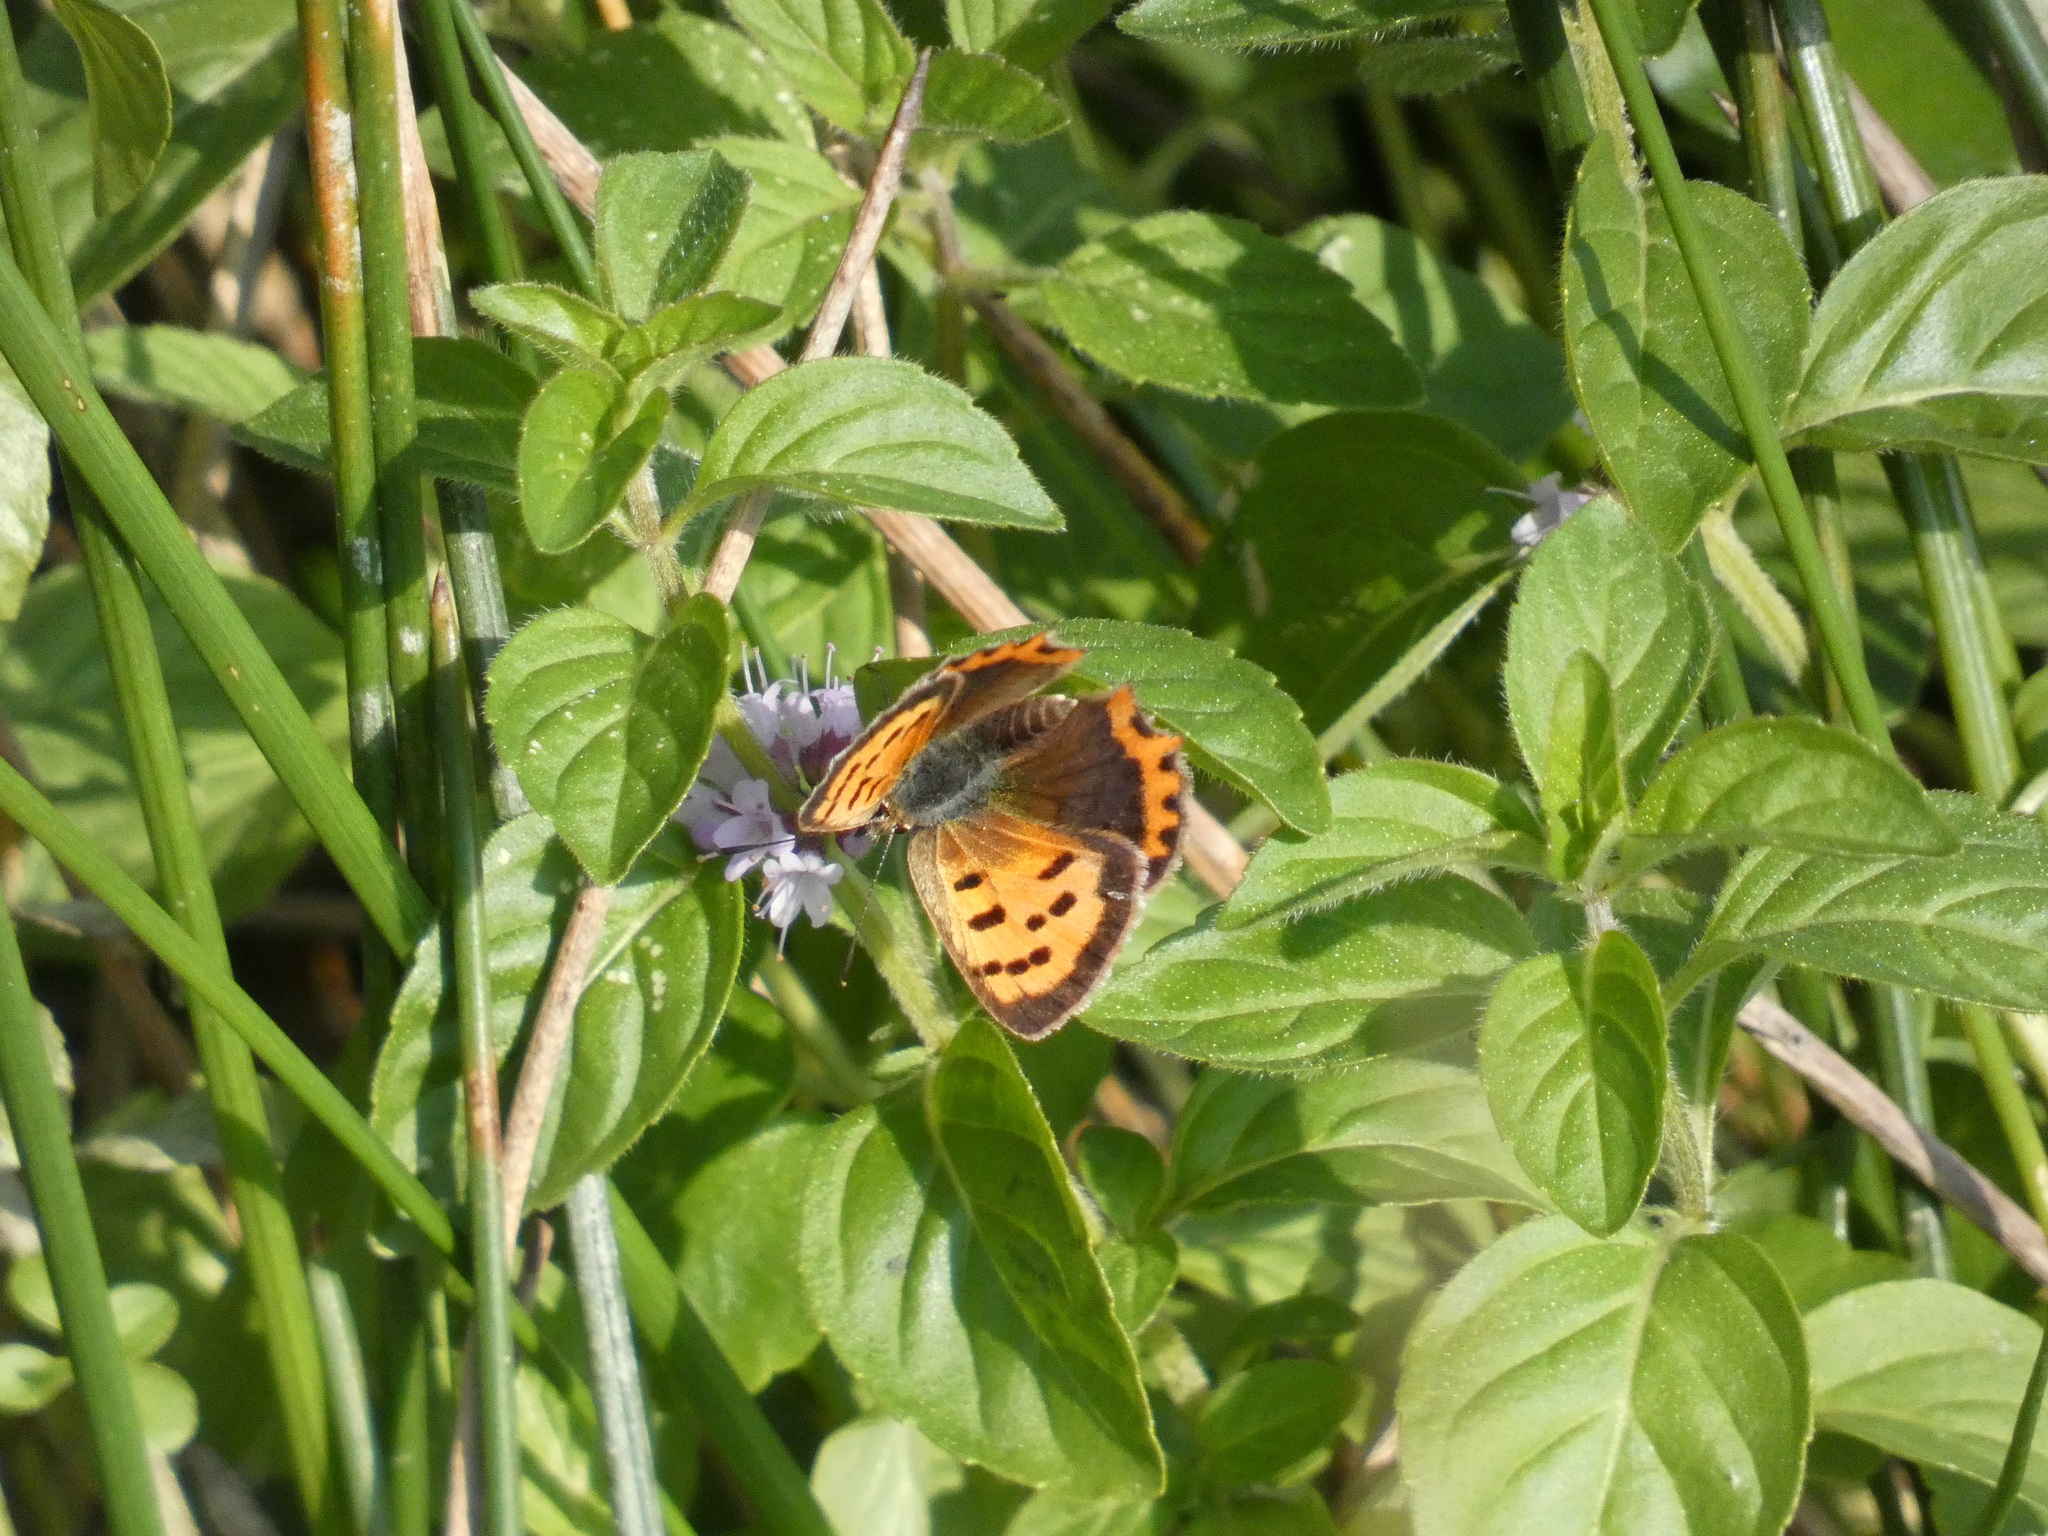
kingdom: Animalia
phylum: Arthropoda
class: Insecta
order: Lepidoptera
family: Lycaenidae
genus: Lycaena
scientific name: Lycaena phlaeas
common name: Small copper
